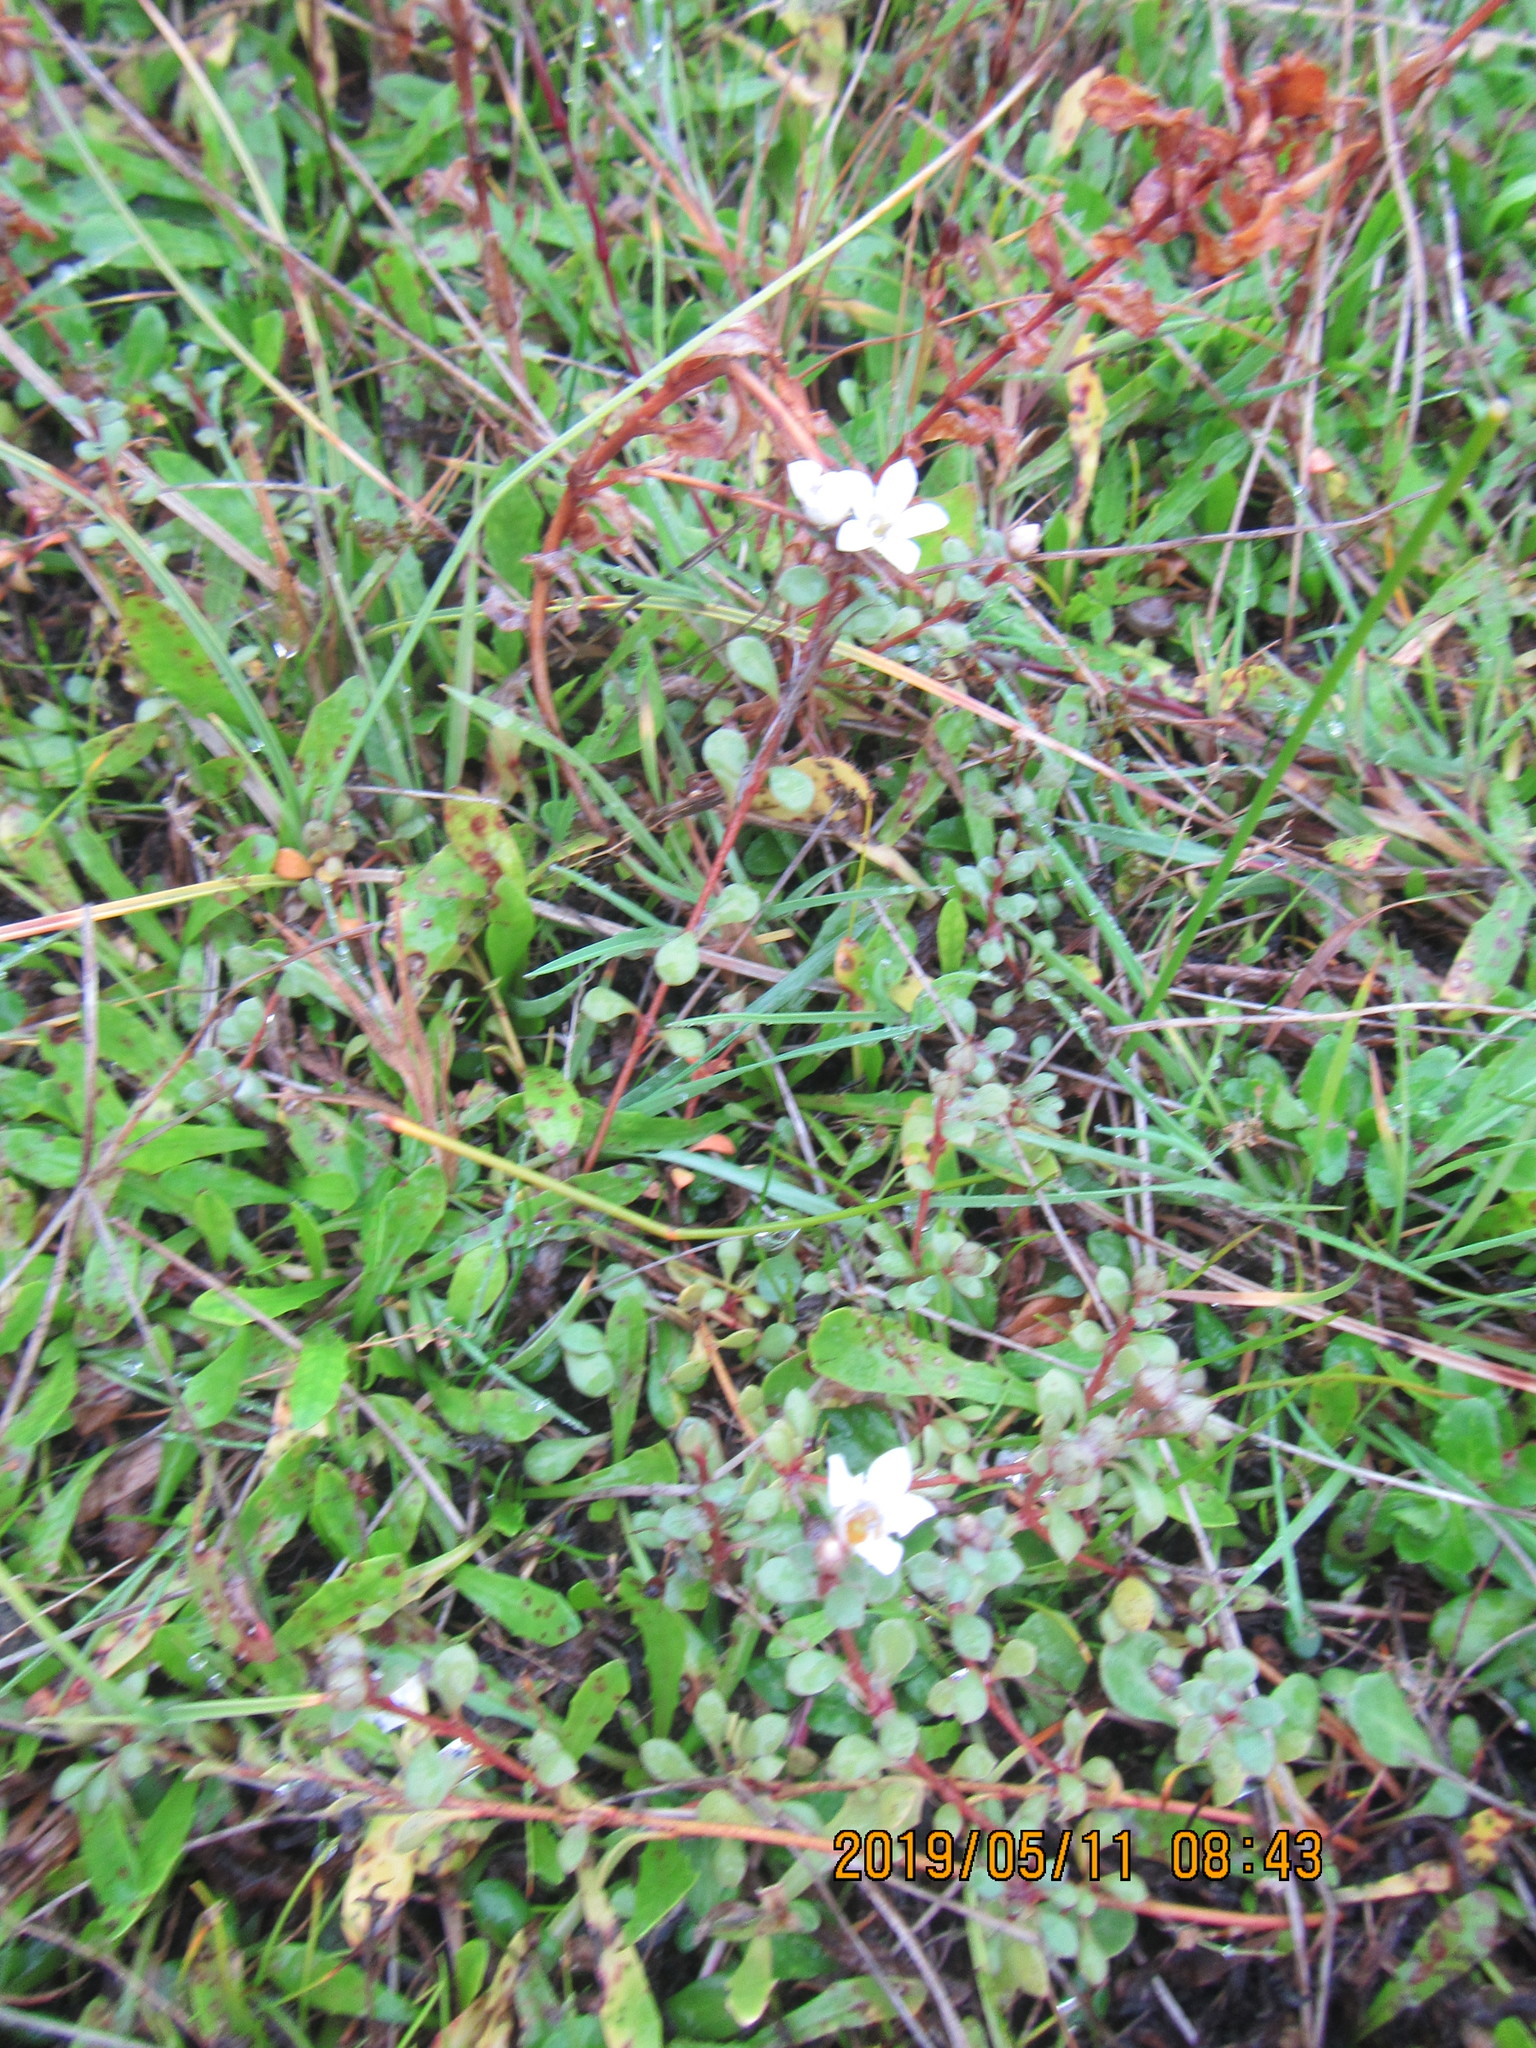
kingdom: Plantae
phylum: Tracheophyta
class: Magnoliopsida
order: Ericales
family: Primulaceae
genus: Samolus
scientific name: Samolus repens
